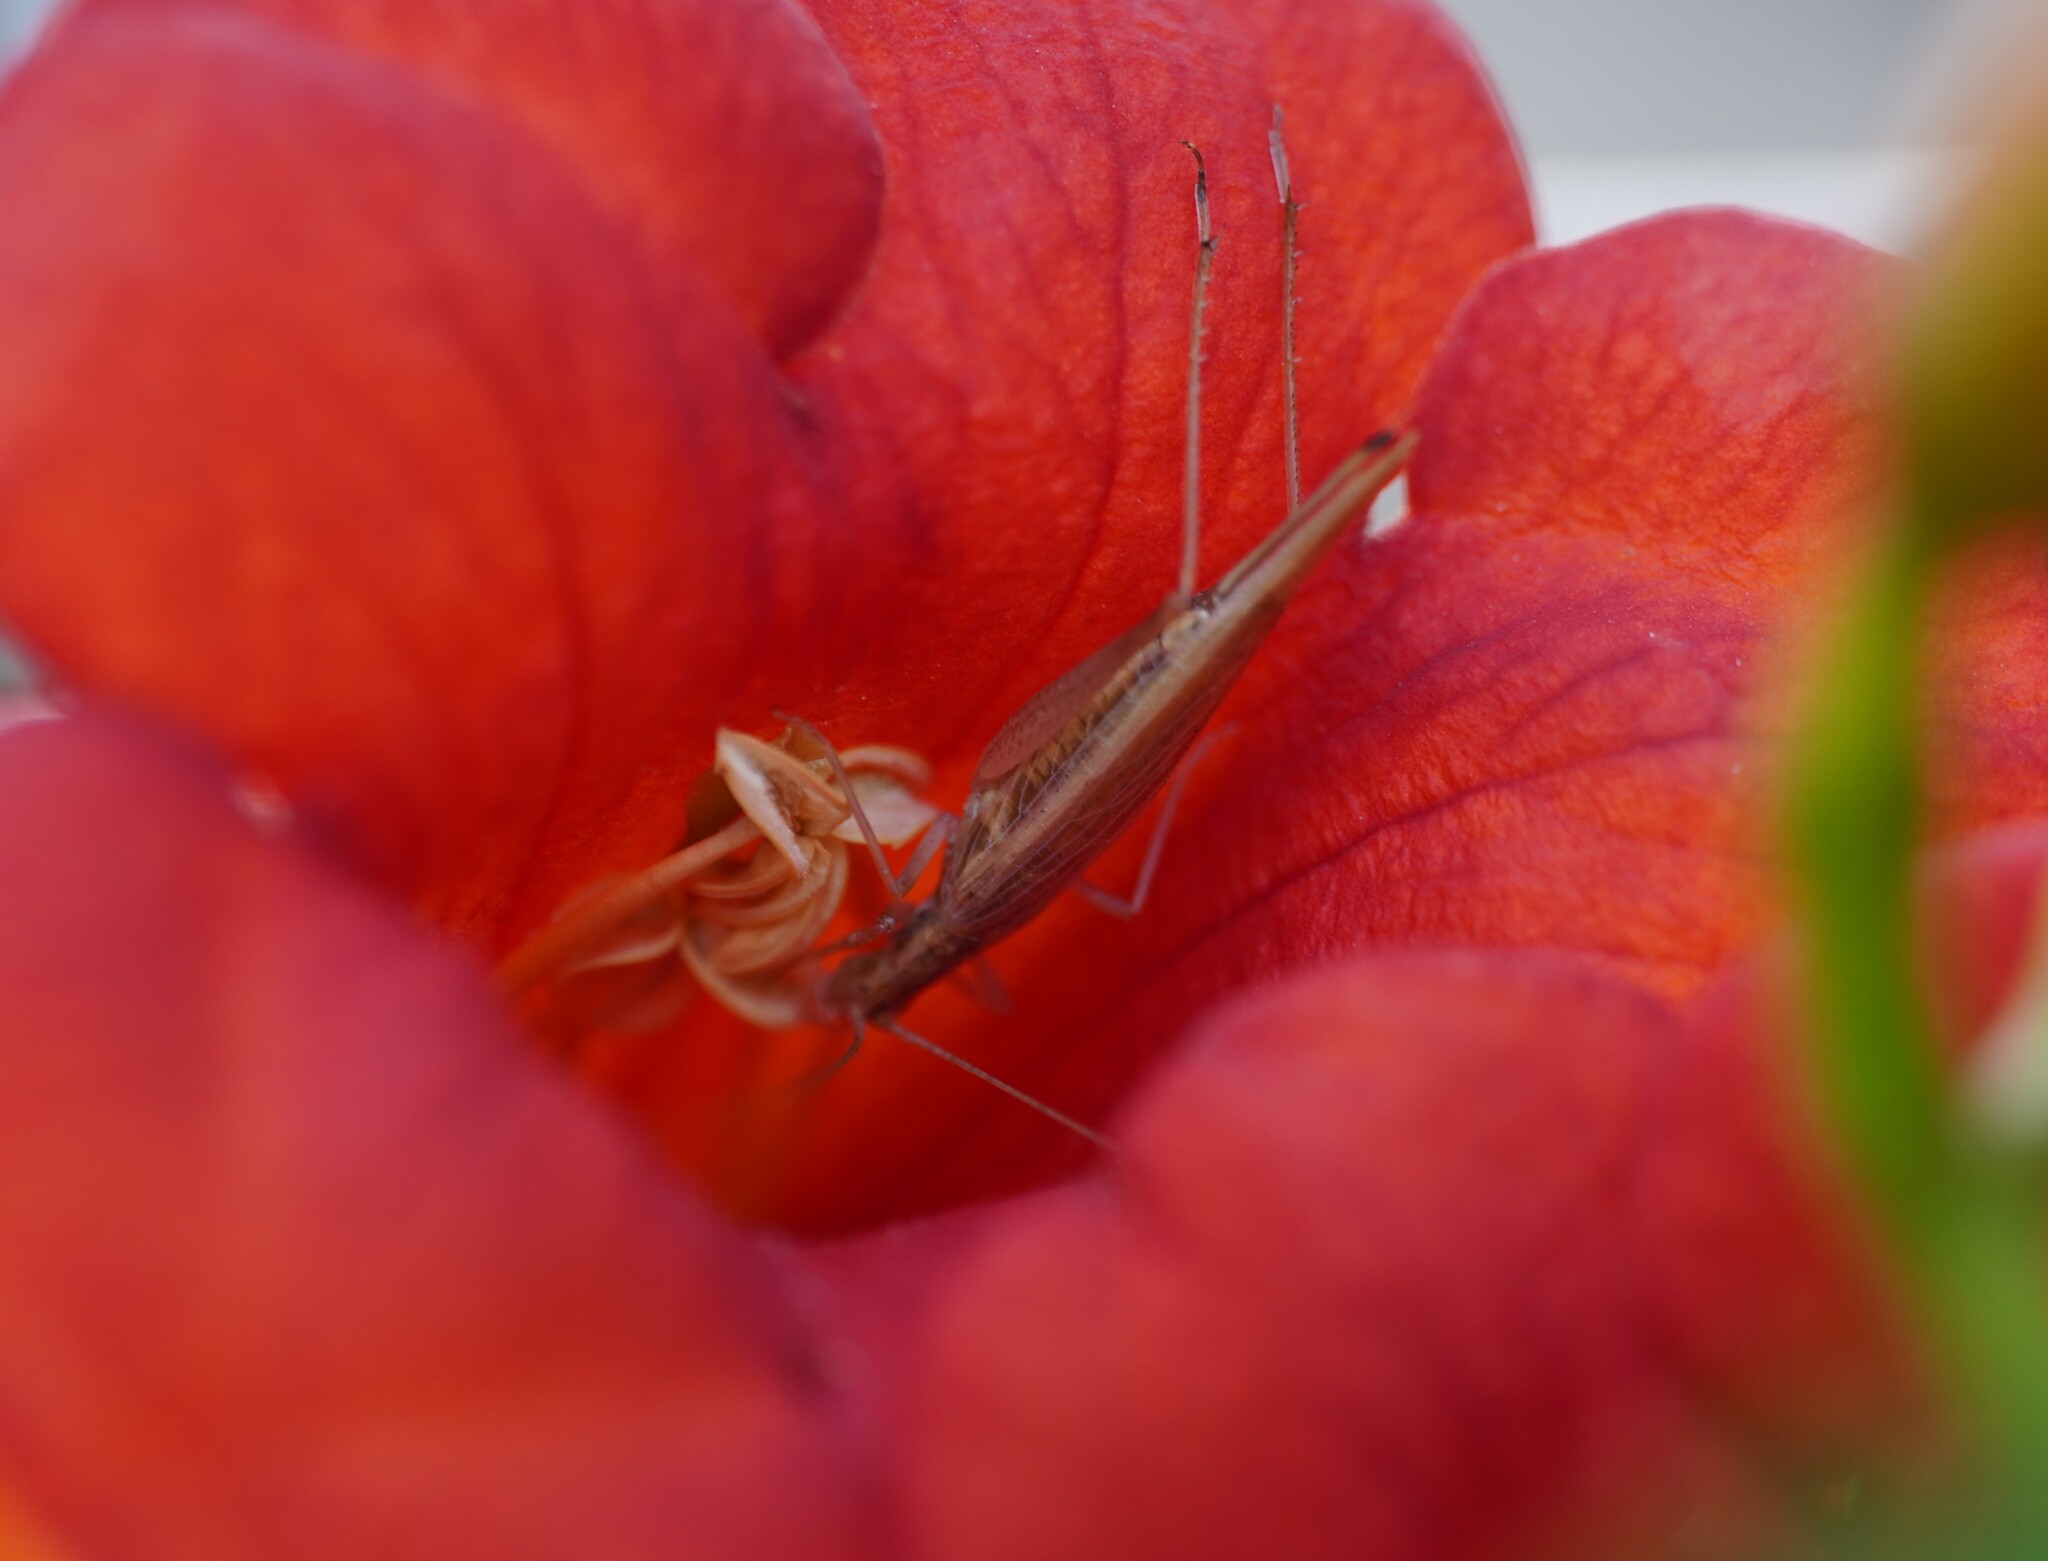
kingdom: Animalia
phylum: Arthropoda
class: Insecta
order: Orthoptera
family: Gryllidae
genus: Oecanthus
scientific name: Oecanthus pellucens
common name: Tree-cricket
